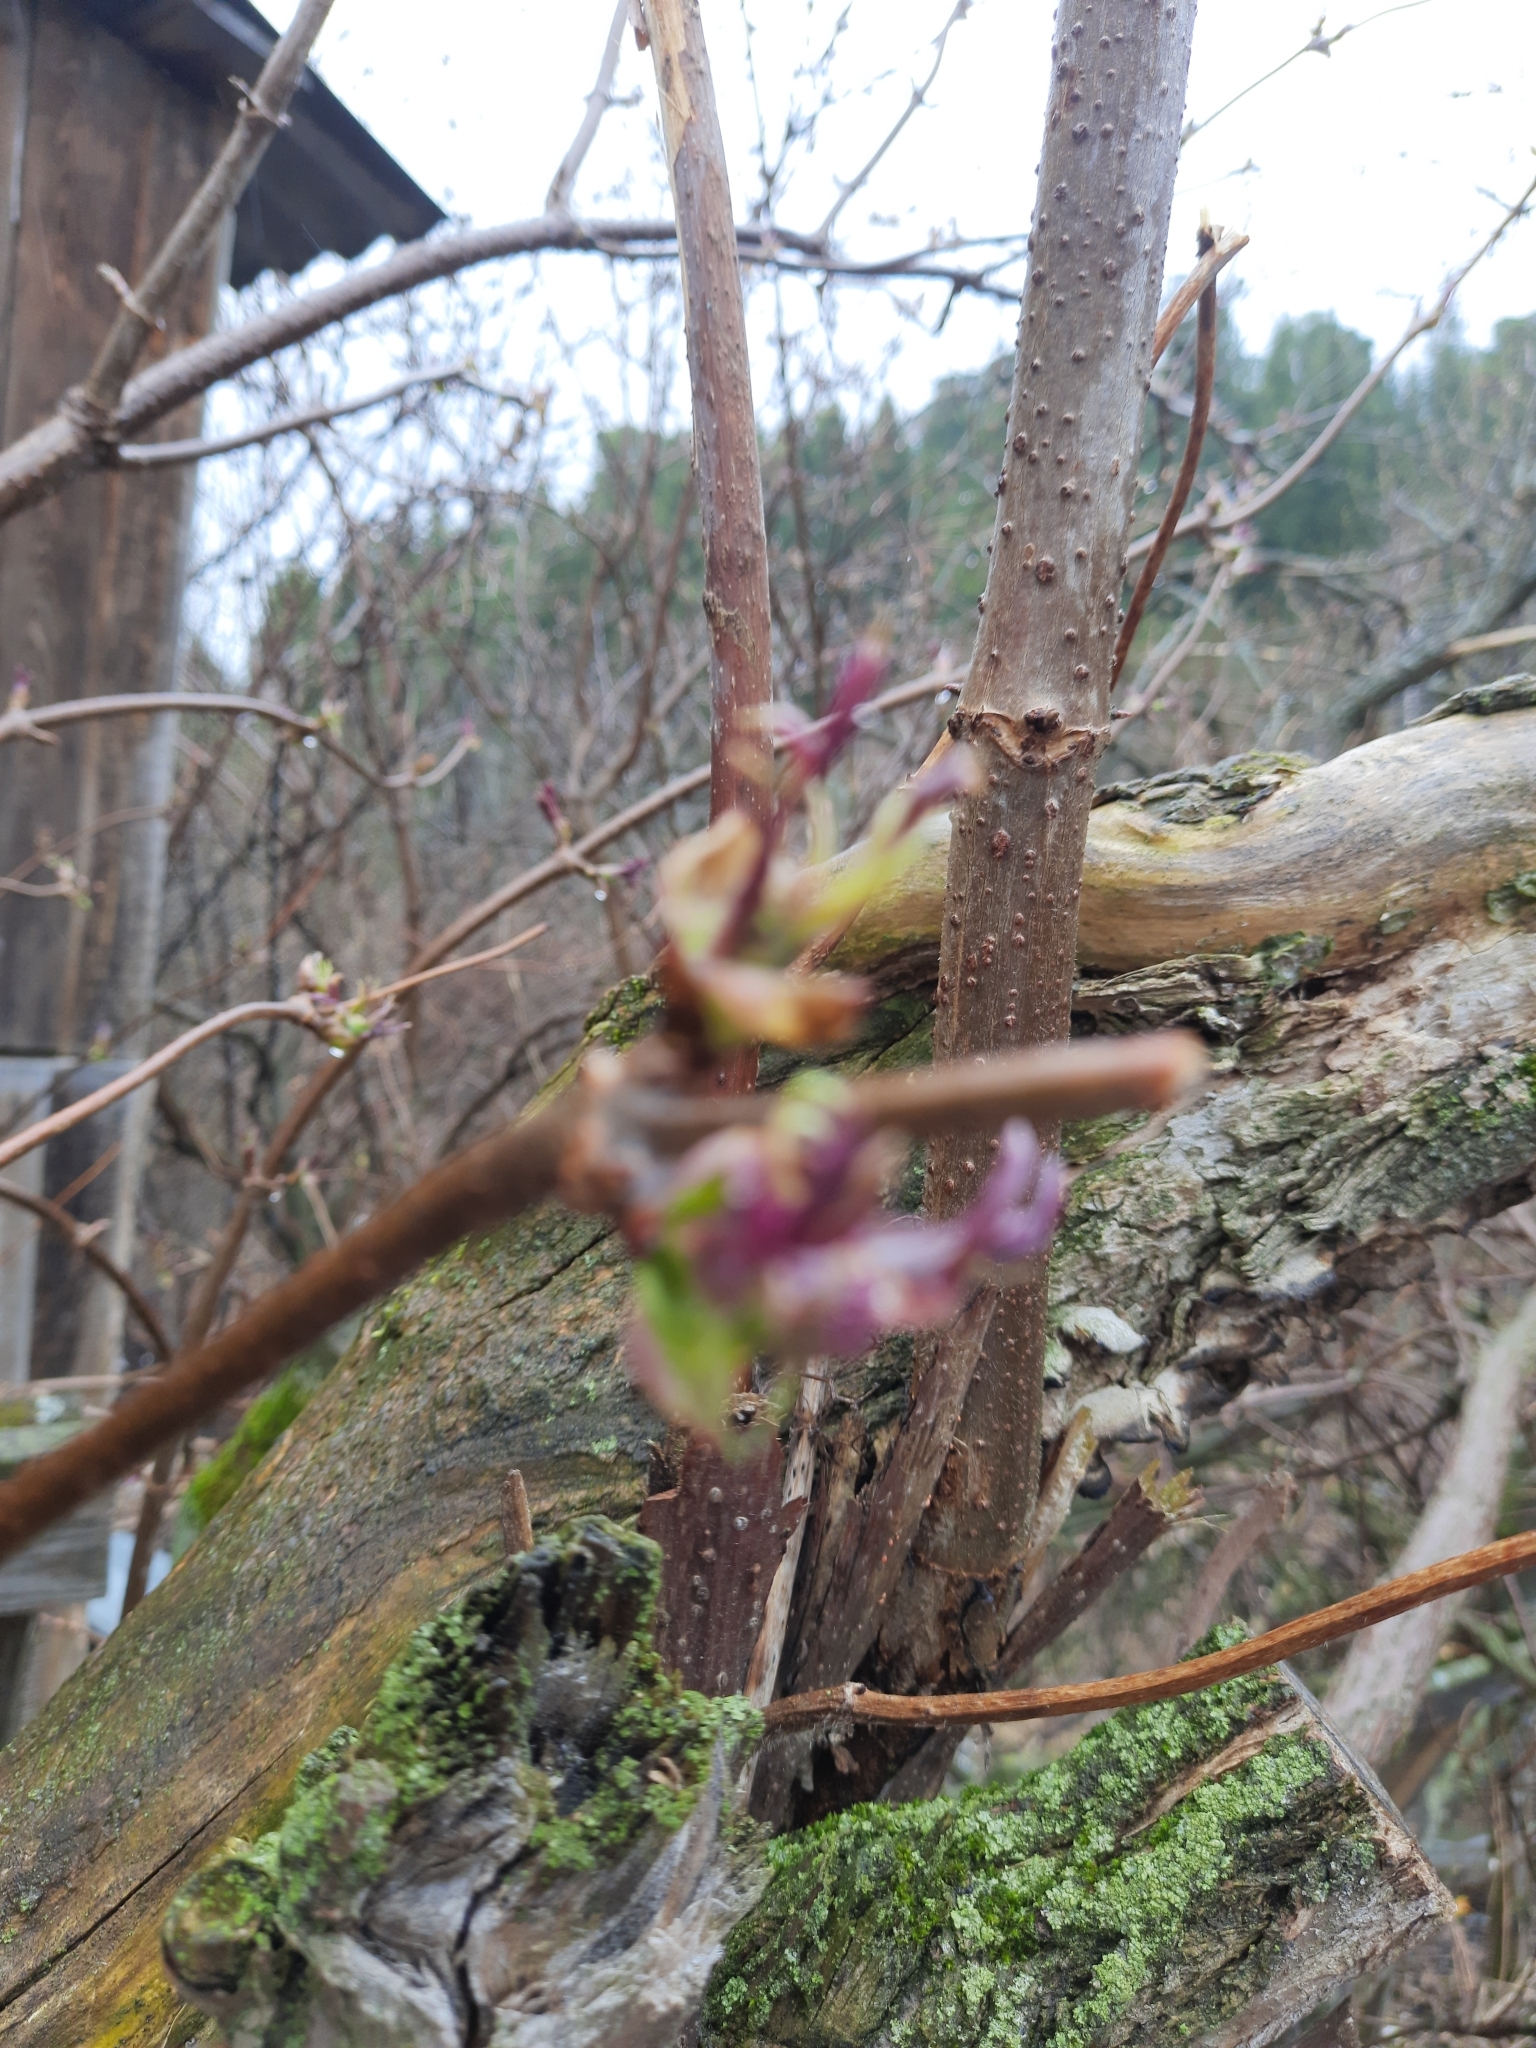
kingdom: Plantae
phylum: Tracheophyta
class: Magnoliopsida
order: Dipsacales
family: Viburnaceae
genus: Sambucus
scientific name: Sambucus sibirica
